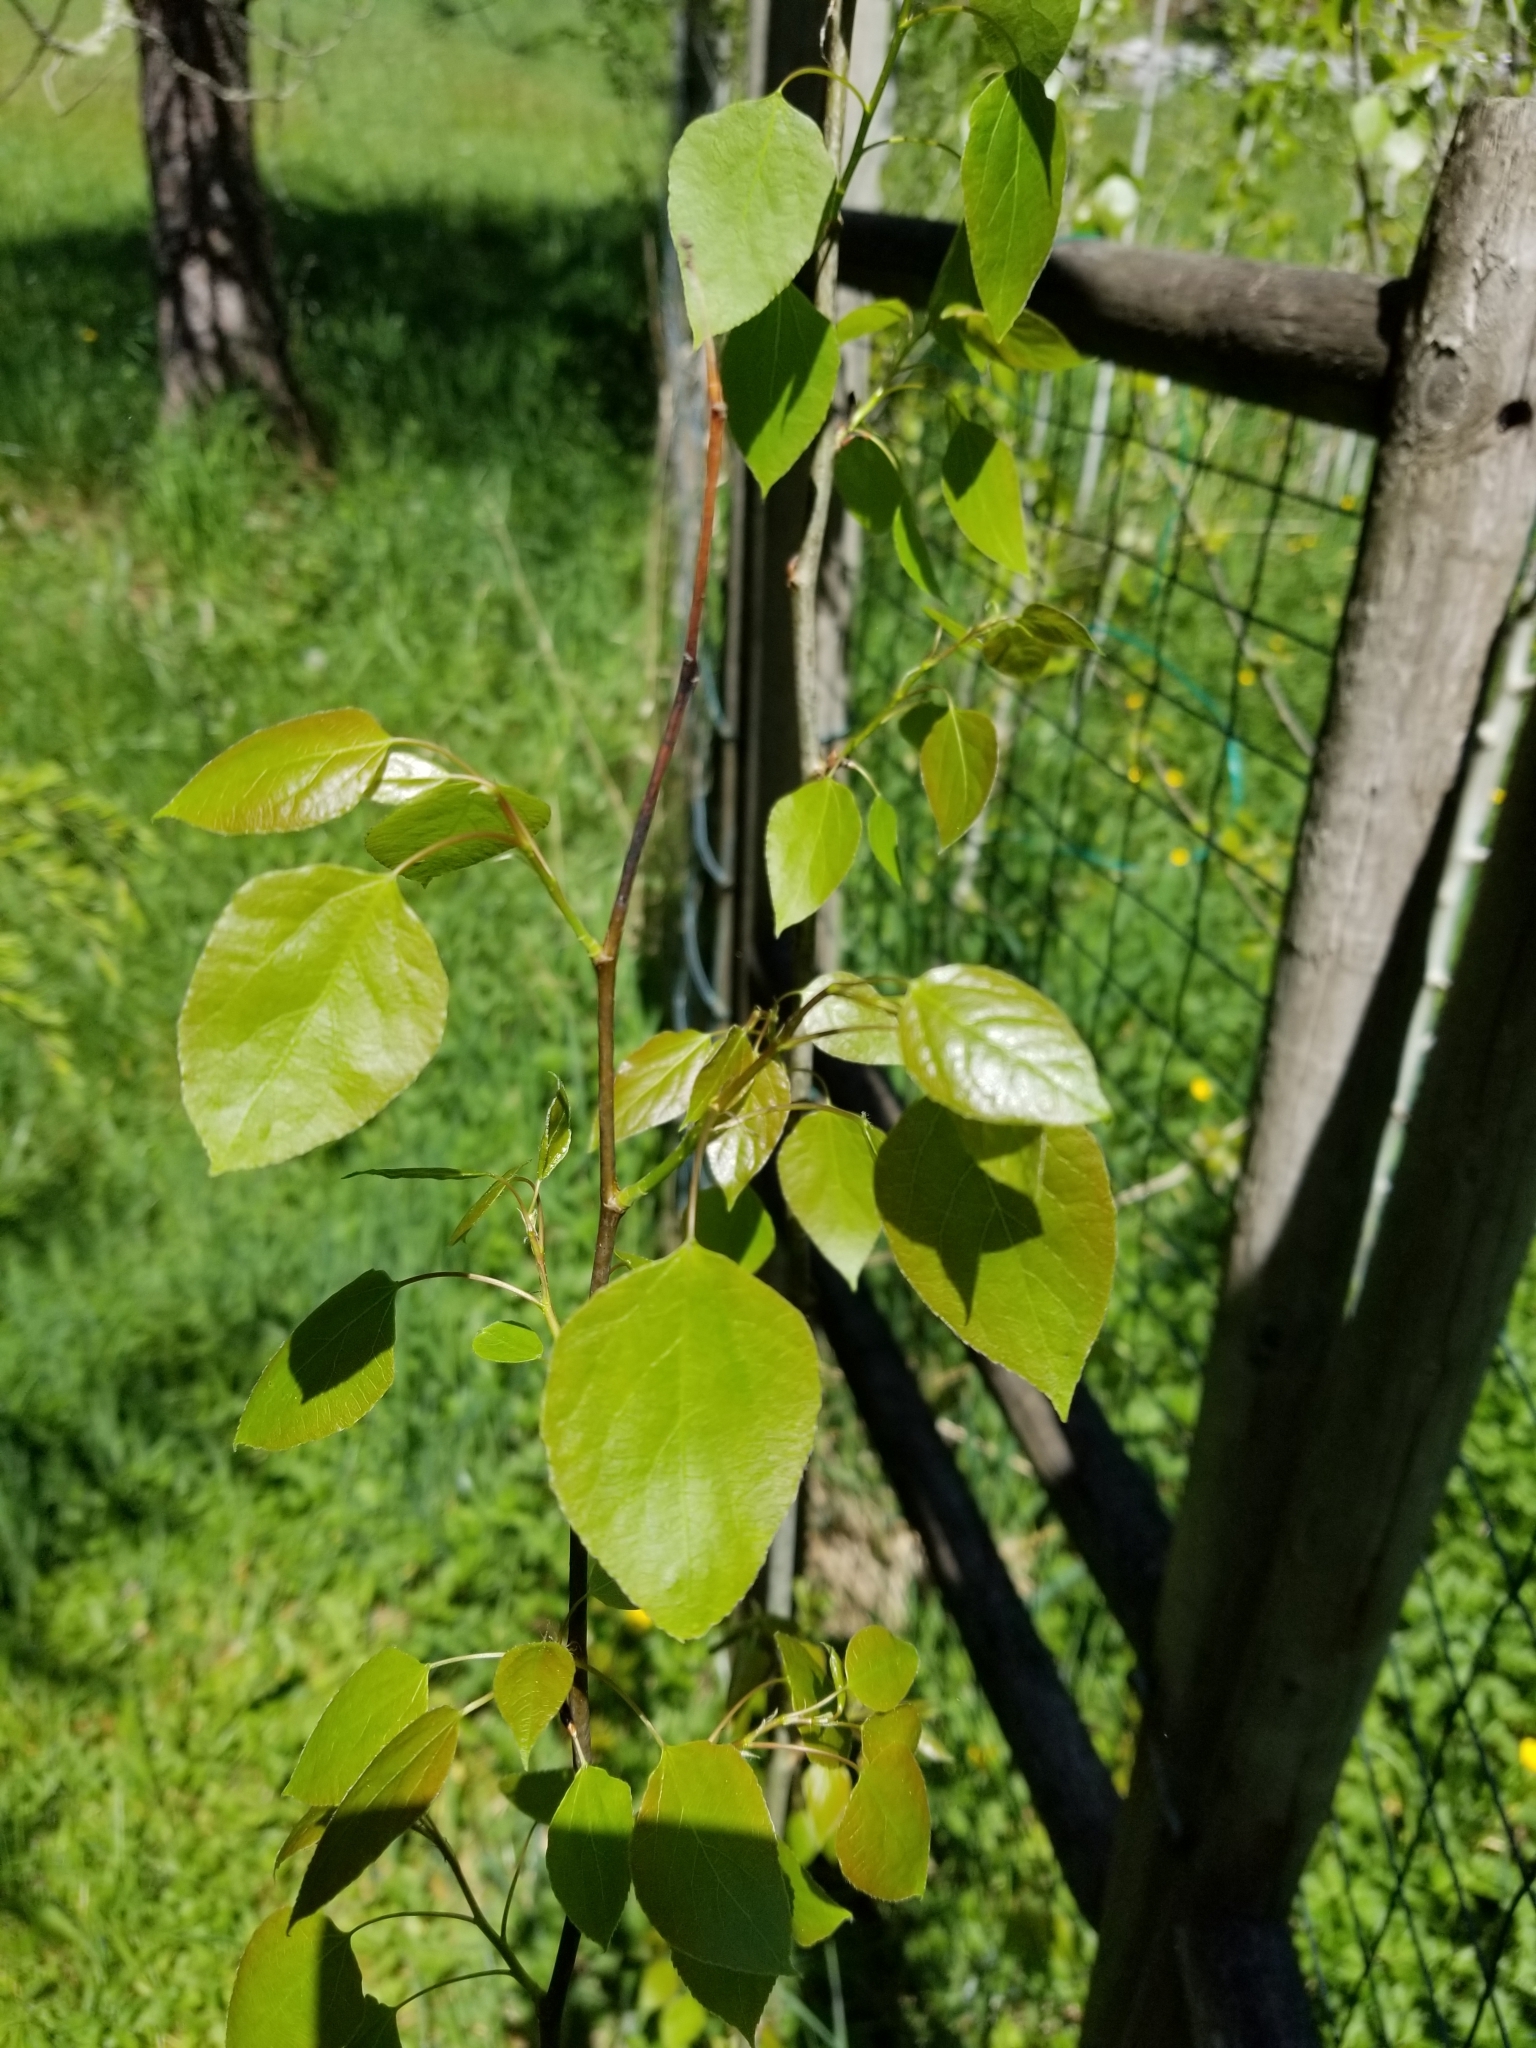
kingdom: Plantae
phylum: Tracheophyta
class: Magnoliopsida
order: Malpighiales
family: Salicaceae
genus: Populus
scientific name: Populus tremuloides
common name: Quaking aspen
